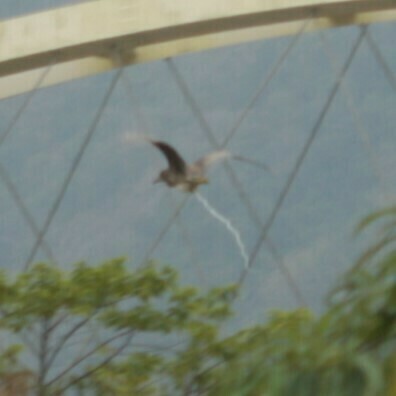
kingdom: Animalia
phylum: Chordata
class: Aves
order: Pelecaniformes
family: Ardeidae
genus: Nycticorax
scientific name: Nycticorax nycticorax
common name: Black-crowned night heron
